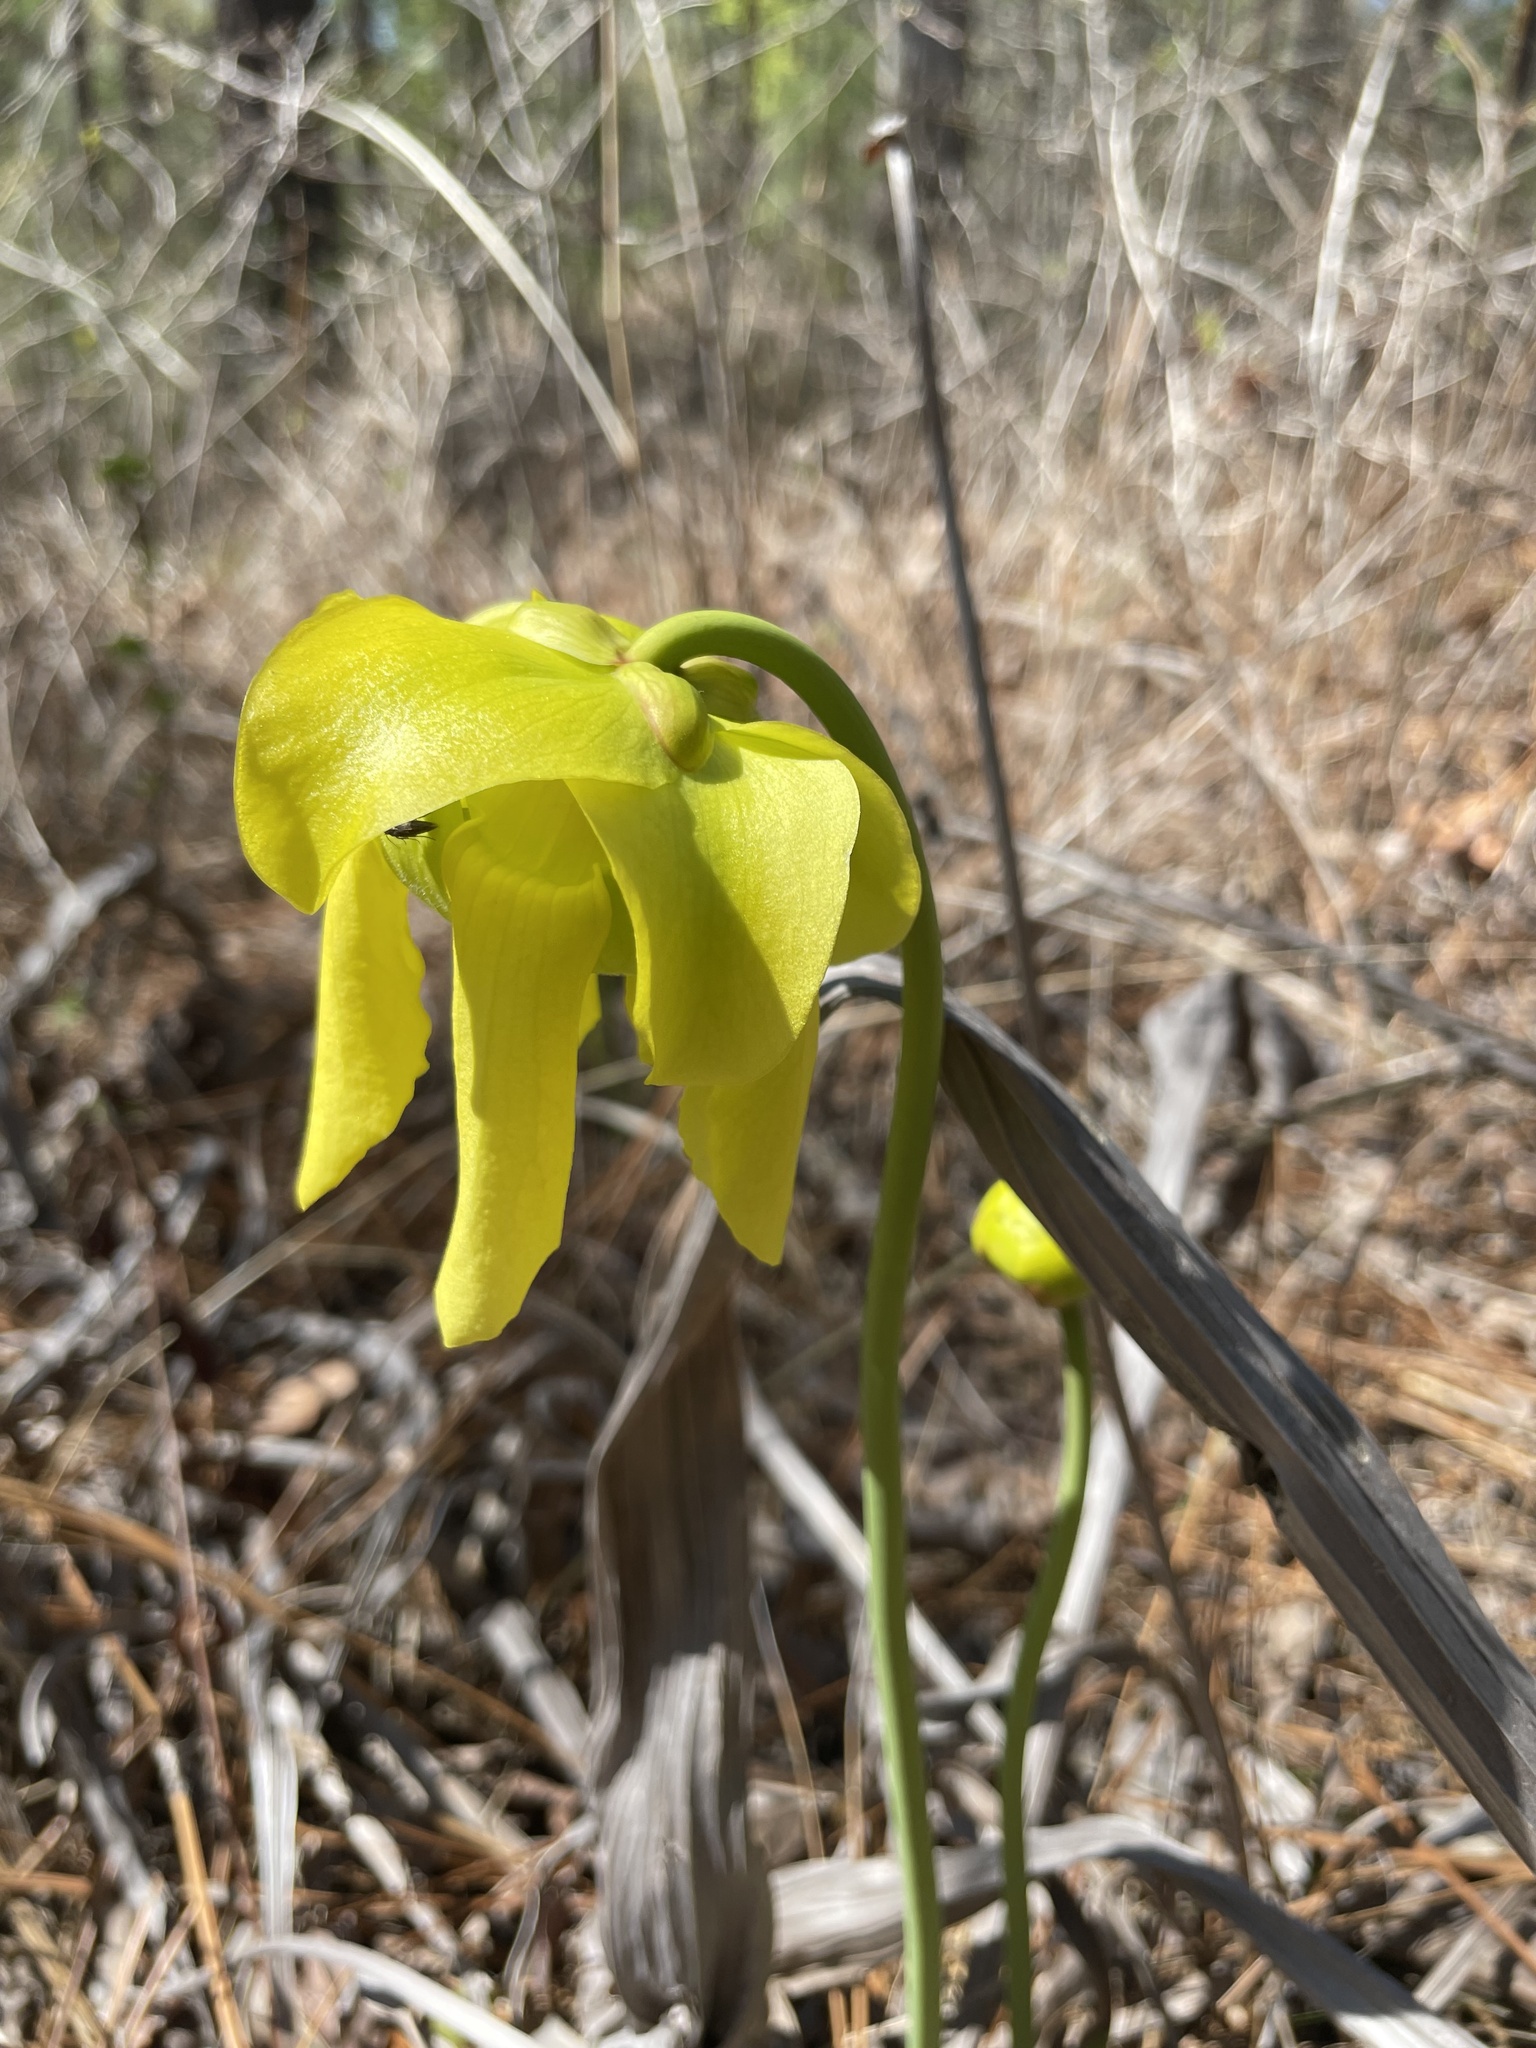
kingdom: Plantae
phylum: Tracheophyta
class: Magnoliopsida
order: Ericales
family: Sarraceniaceae
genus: Sarracenia
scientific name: Sarracenia flava
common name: Trumpets
